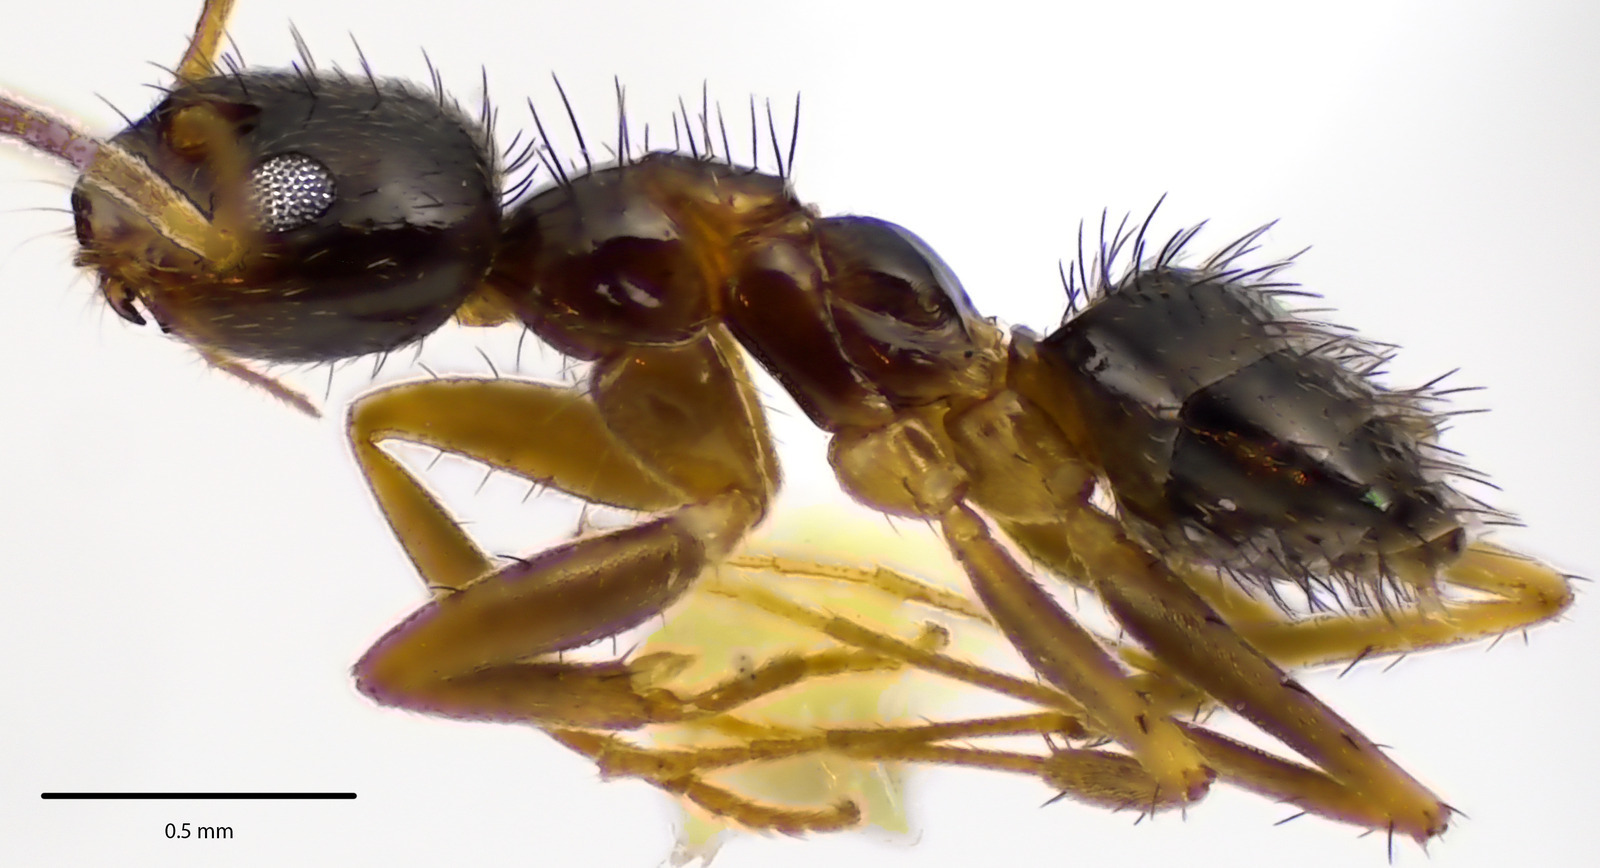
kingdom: Animalia
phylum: Arthropoda
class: Insecta
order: Hymenoptera
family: Formicidae
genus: Paratrechina
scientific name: Paratrechina vividula
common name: Nylander's crazy ant
